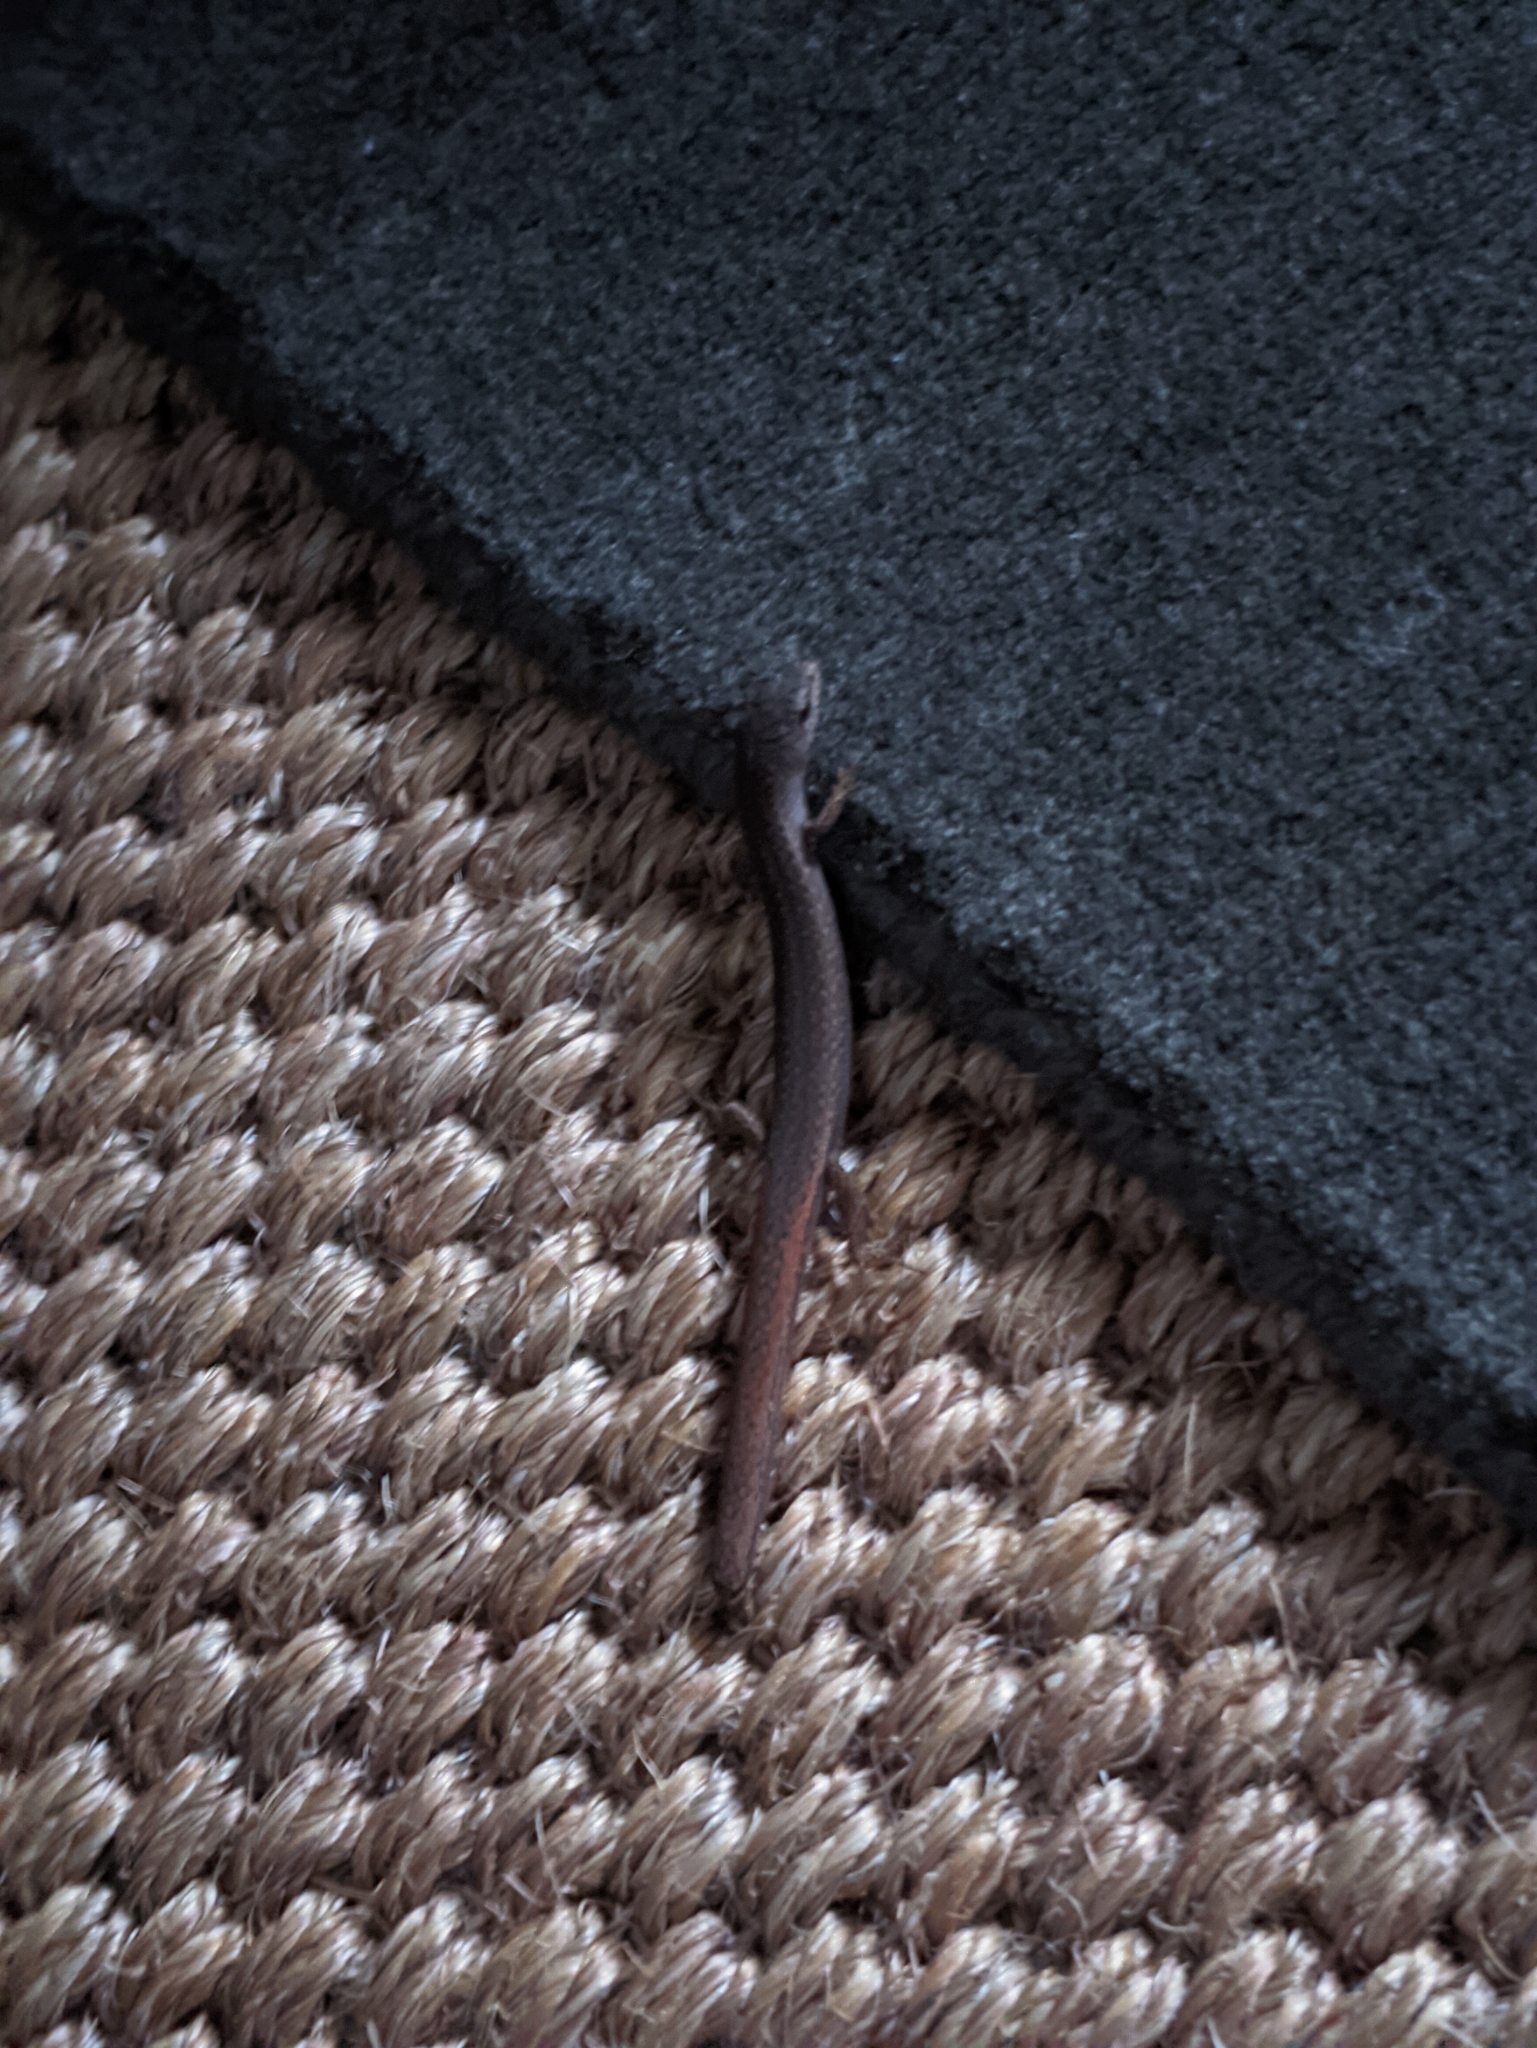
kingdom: Animalia
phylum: Chordata
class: Squamata
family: Scincidae
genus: Saproscincus
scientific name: Saproscincus mustelinus
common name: Southern weasel skink
